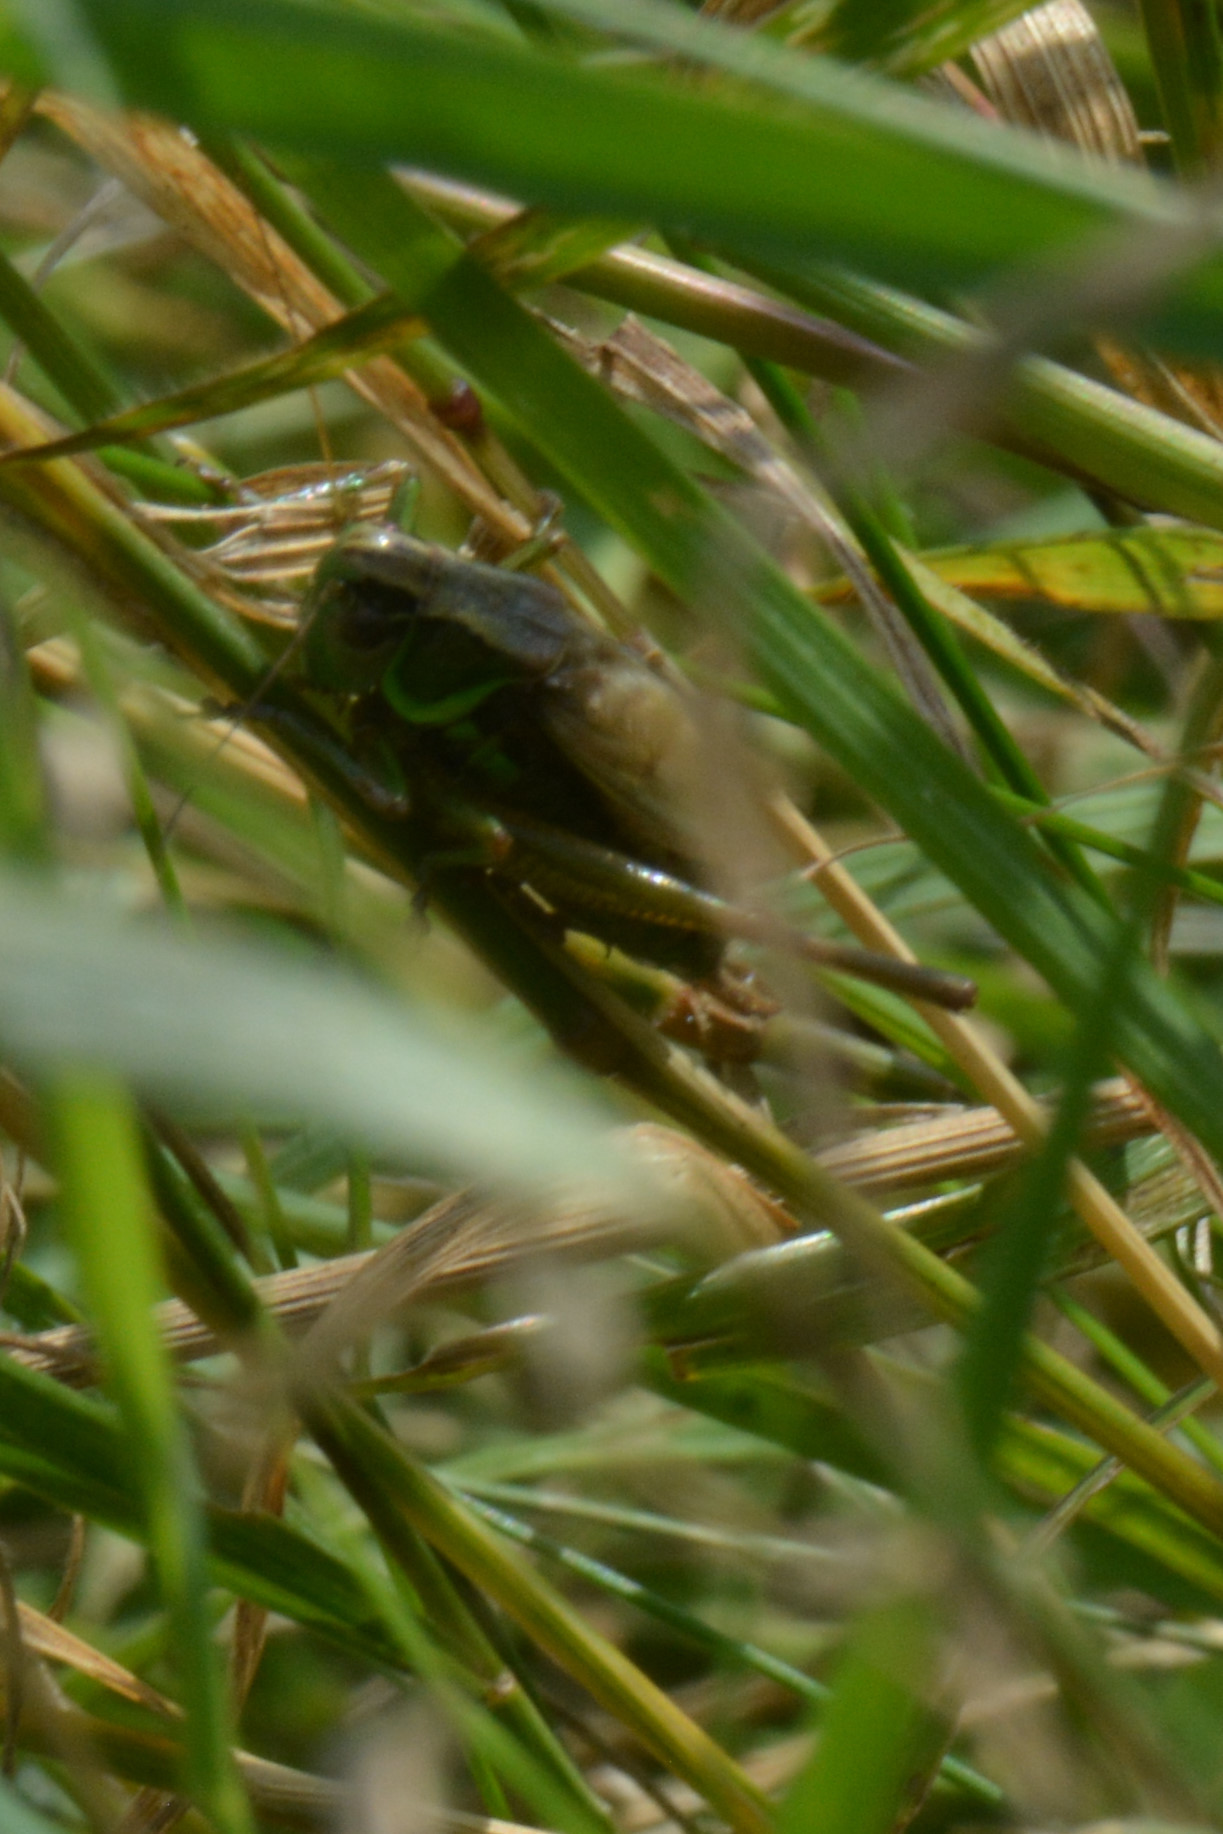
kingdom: Animalia
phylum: Arthropoda
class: Insecta
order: Orthoptera
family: Tettigoniidae
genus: Roeseliana
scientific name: Roeseliana roeselii
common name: Roesel's bush cricket
